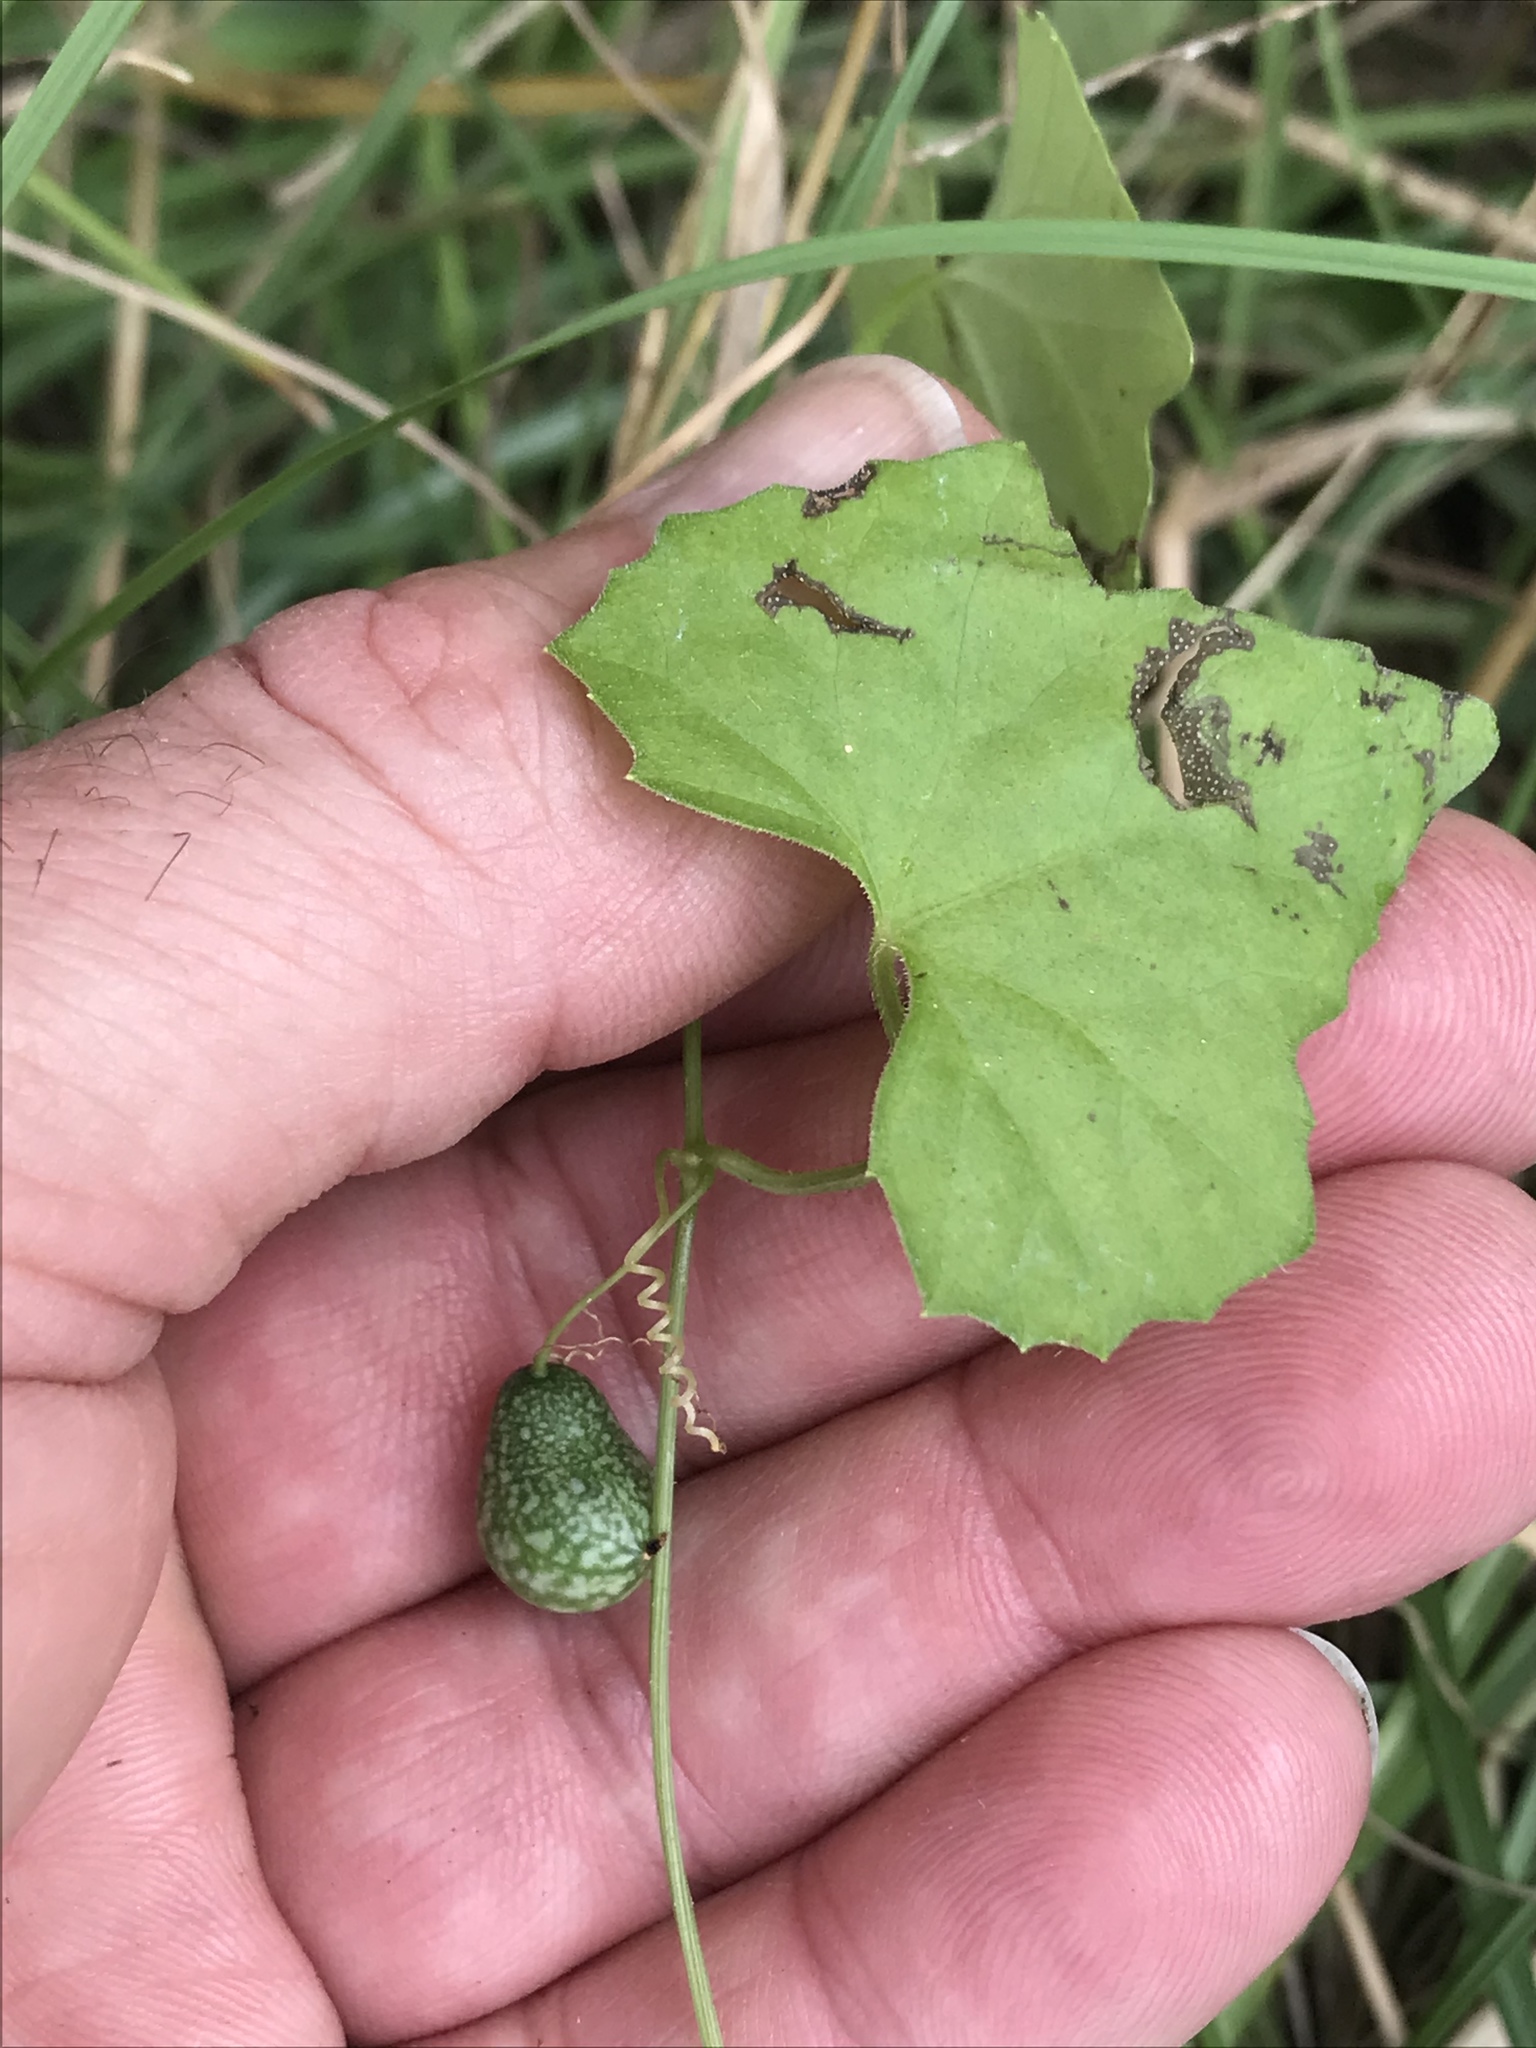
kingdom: Plantae
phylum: Tracheophyta
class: Magnoliopsida
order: Cucurbitales
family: Cucurbitaceae
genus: Melothria
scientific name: Melothria pendula
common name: Creeping-cucumber
